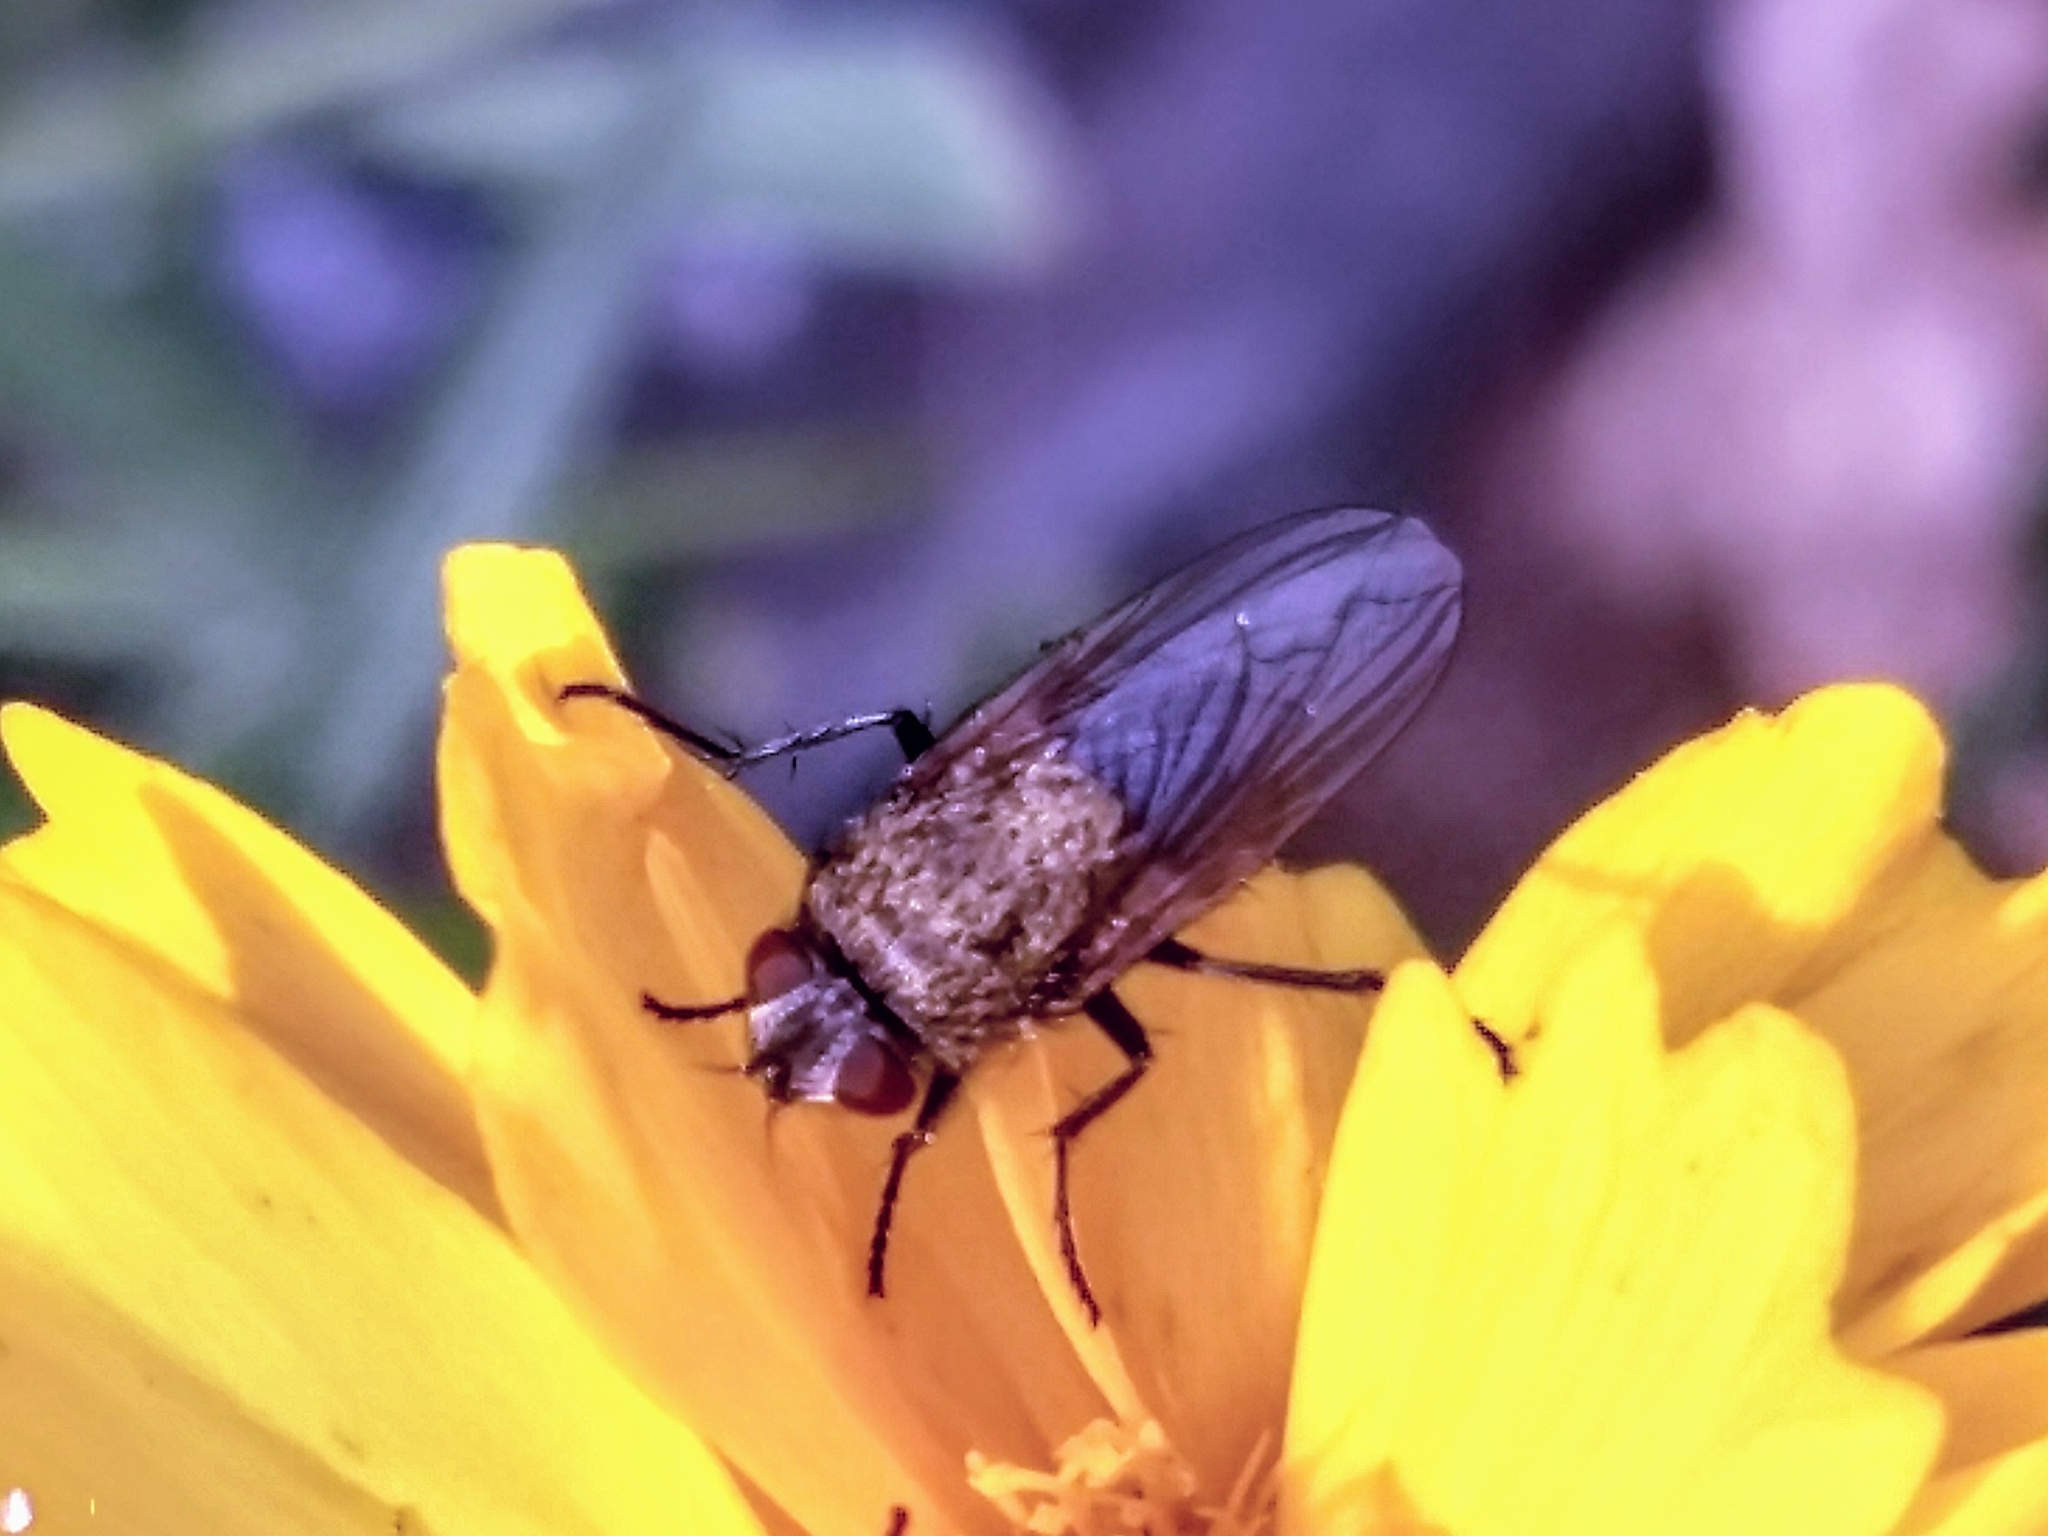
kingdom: Animalia
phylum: Arthropoda
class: Insecta
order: Diptera
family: Polleniidae
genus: Pollenia
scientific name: Pollenia
